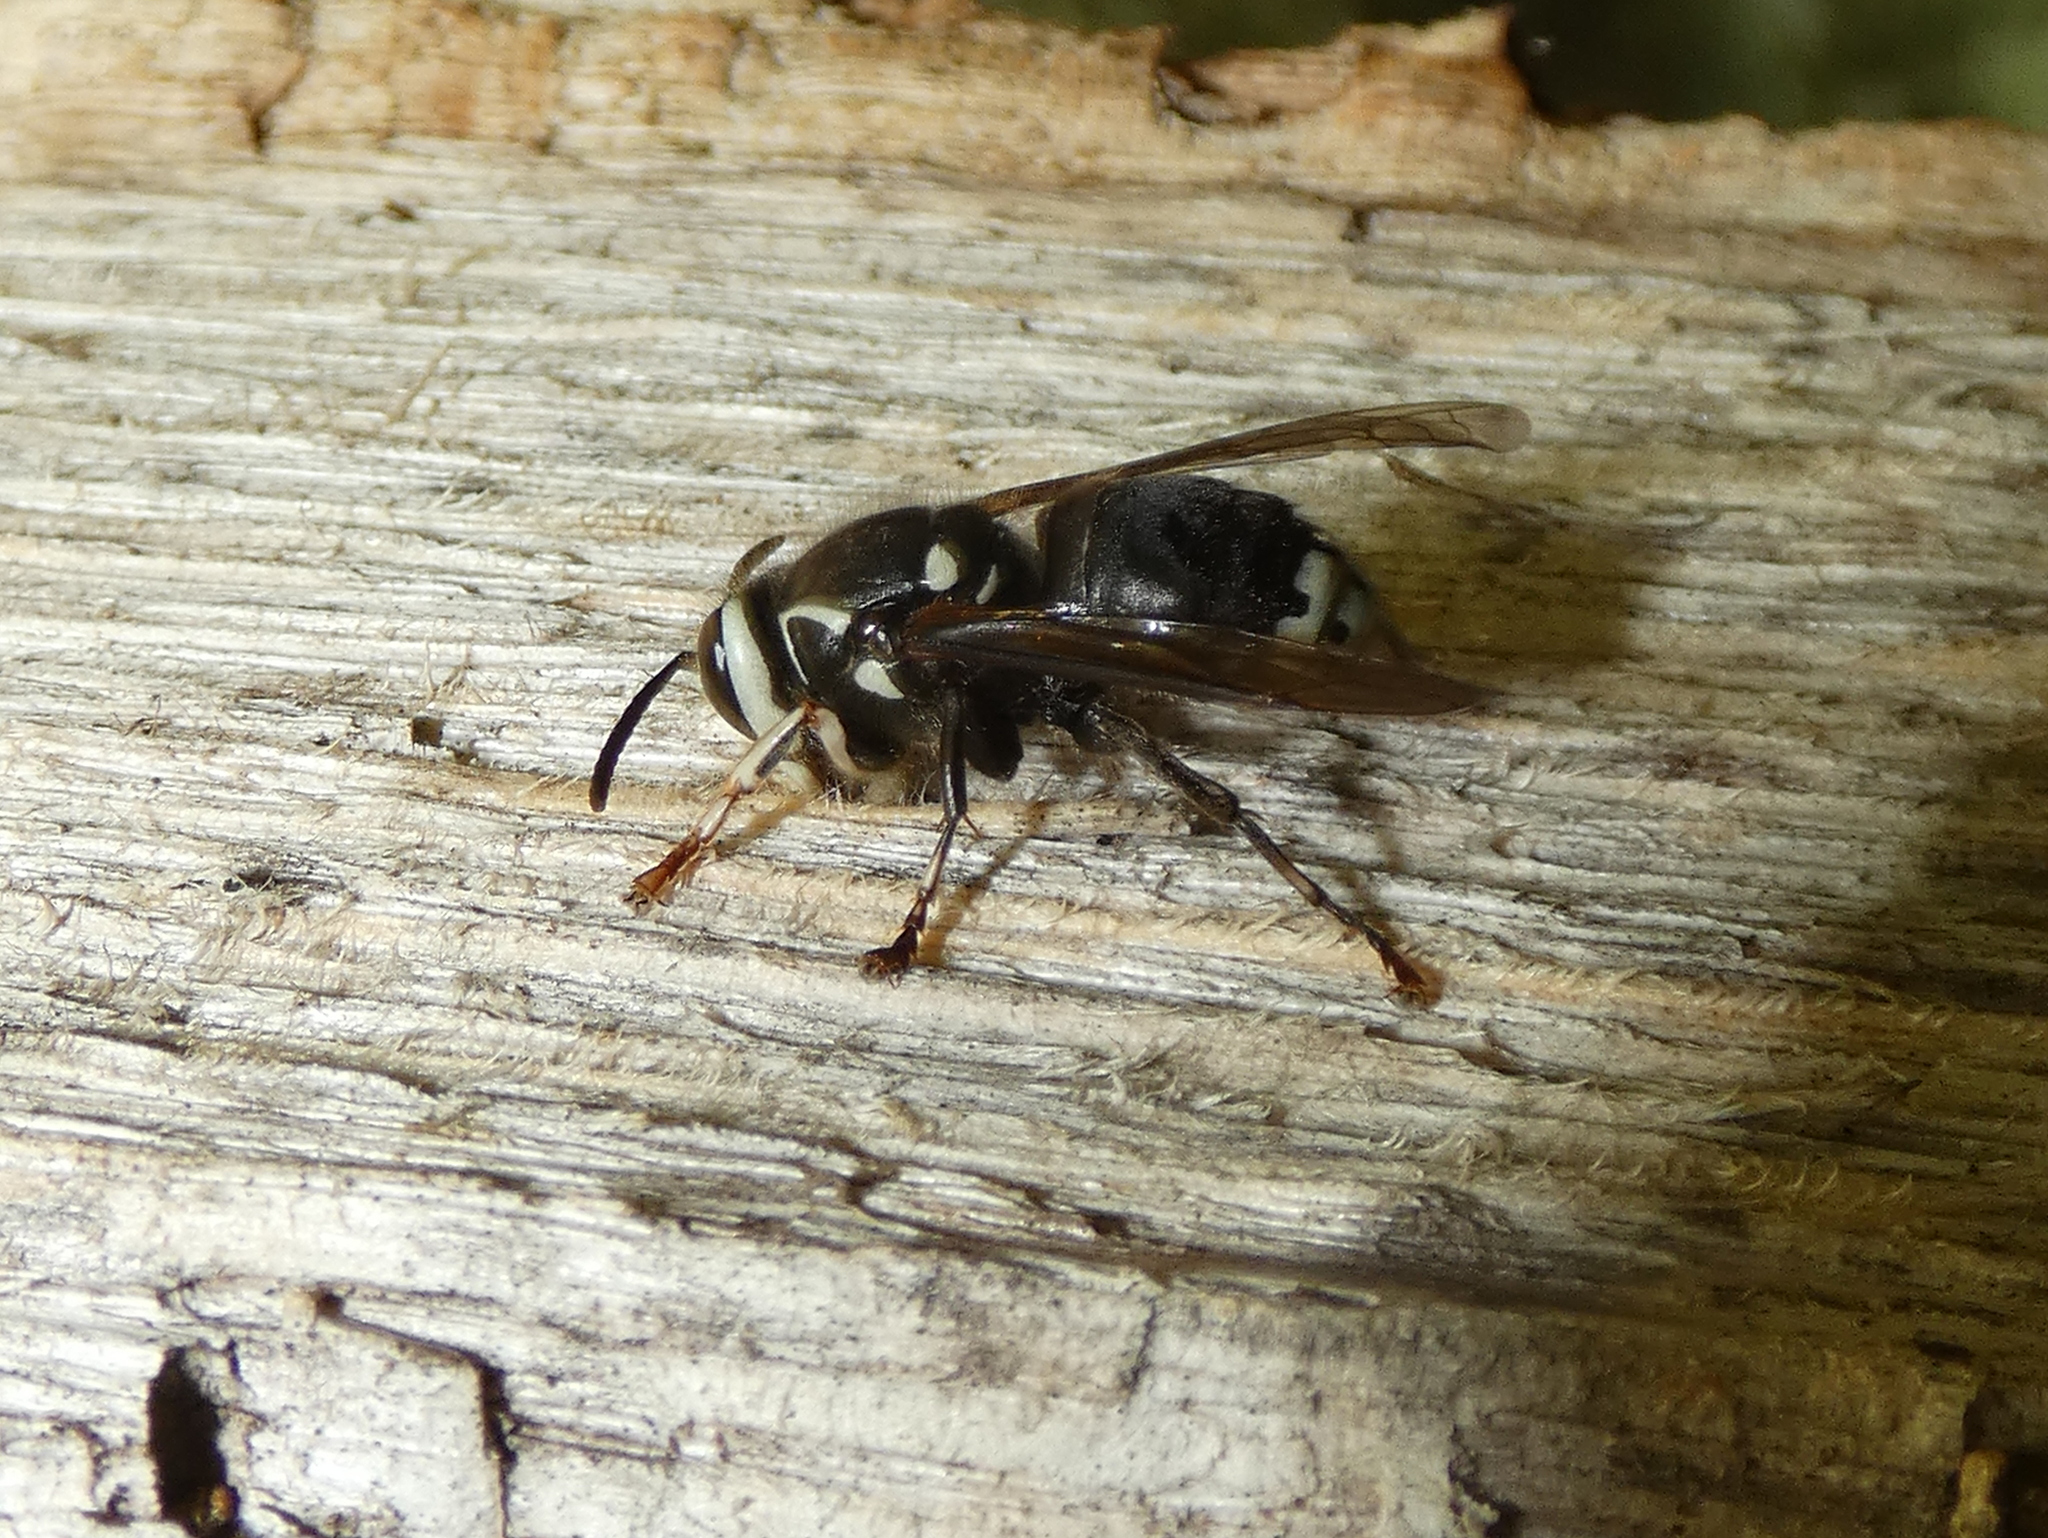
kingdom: Animalia
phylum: Arthropoda
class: Insecta
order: Hymenoptera
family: Vespidae
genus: Dolichovespula
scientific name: Dolichovespula maculata
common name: Bald-faced hornet
